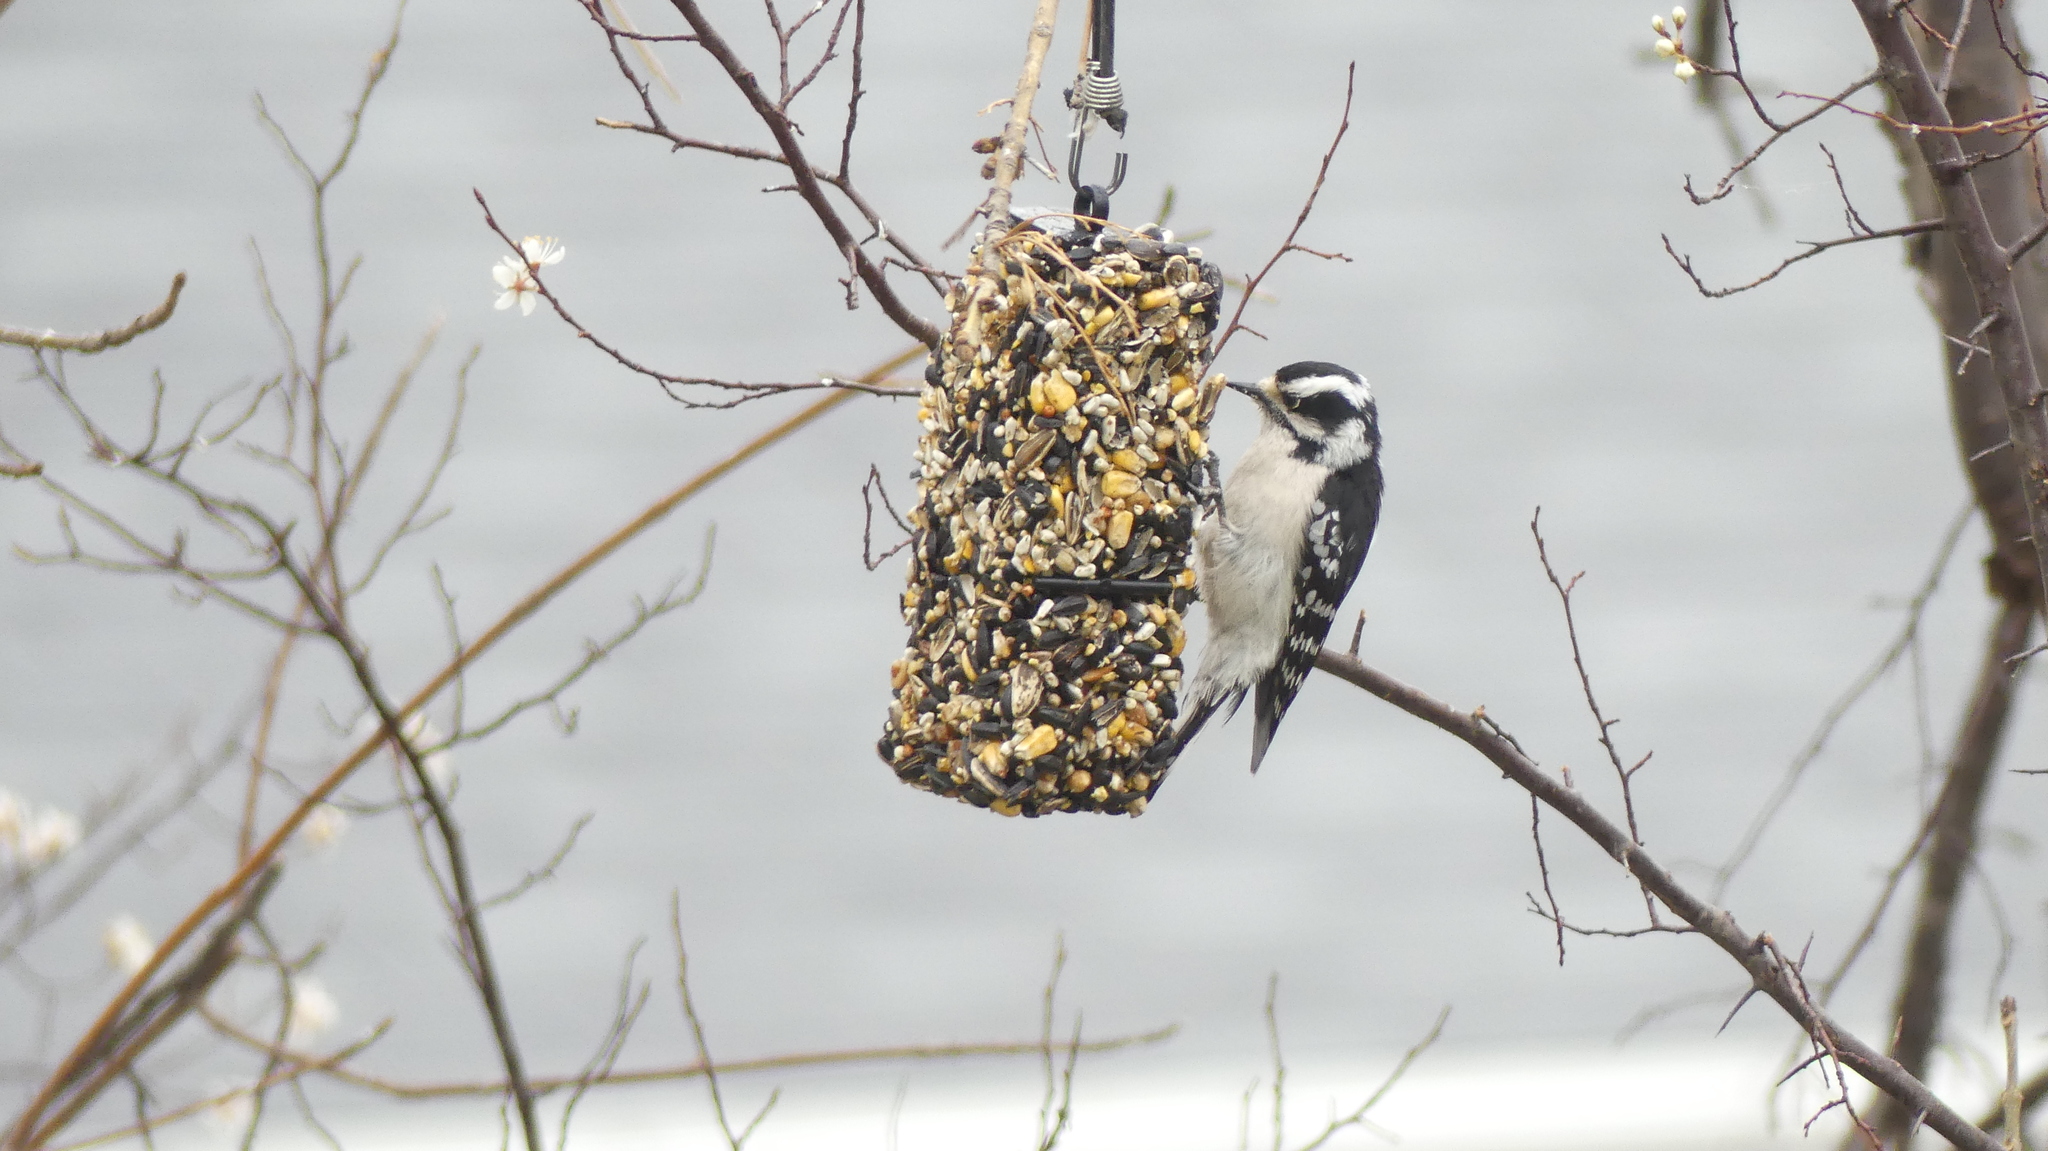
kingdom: Animalia
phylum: Chordata
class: Aves
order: Piciformes
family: Picidae
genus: Dryobates
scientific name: Dryobates pubescens
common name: Downy woodpecker
